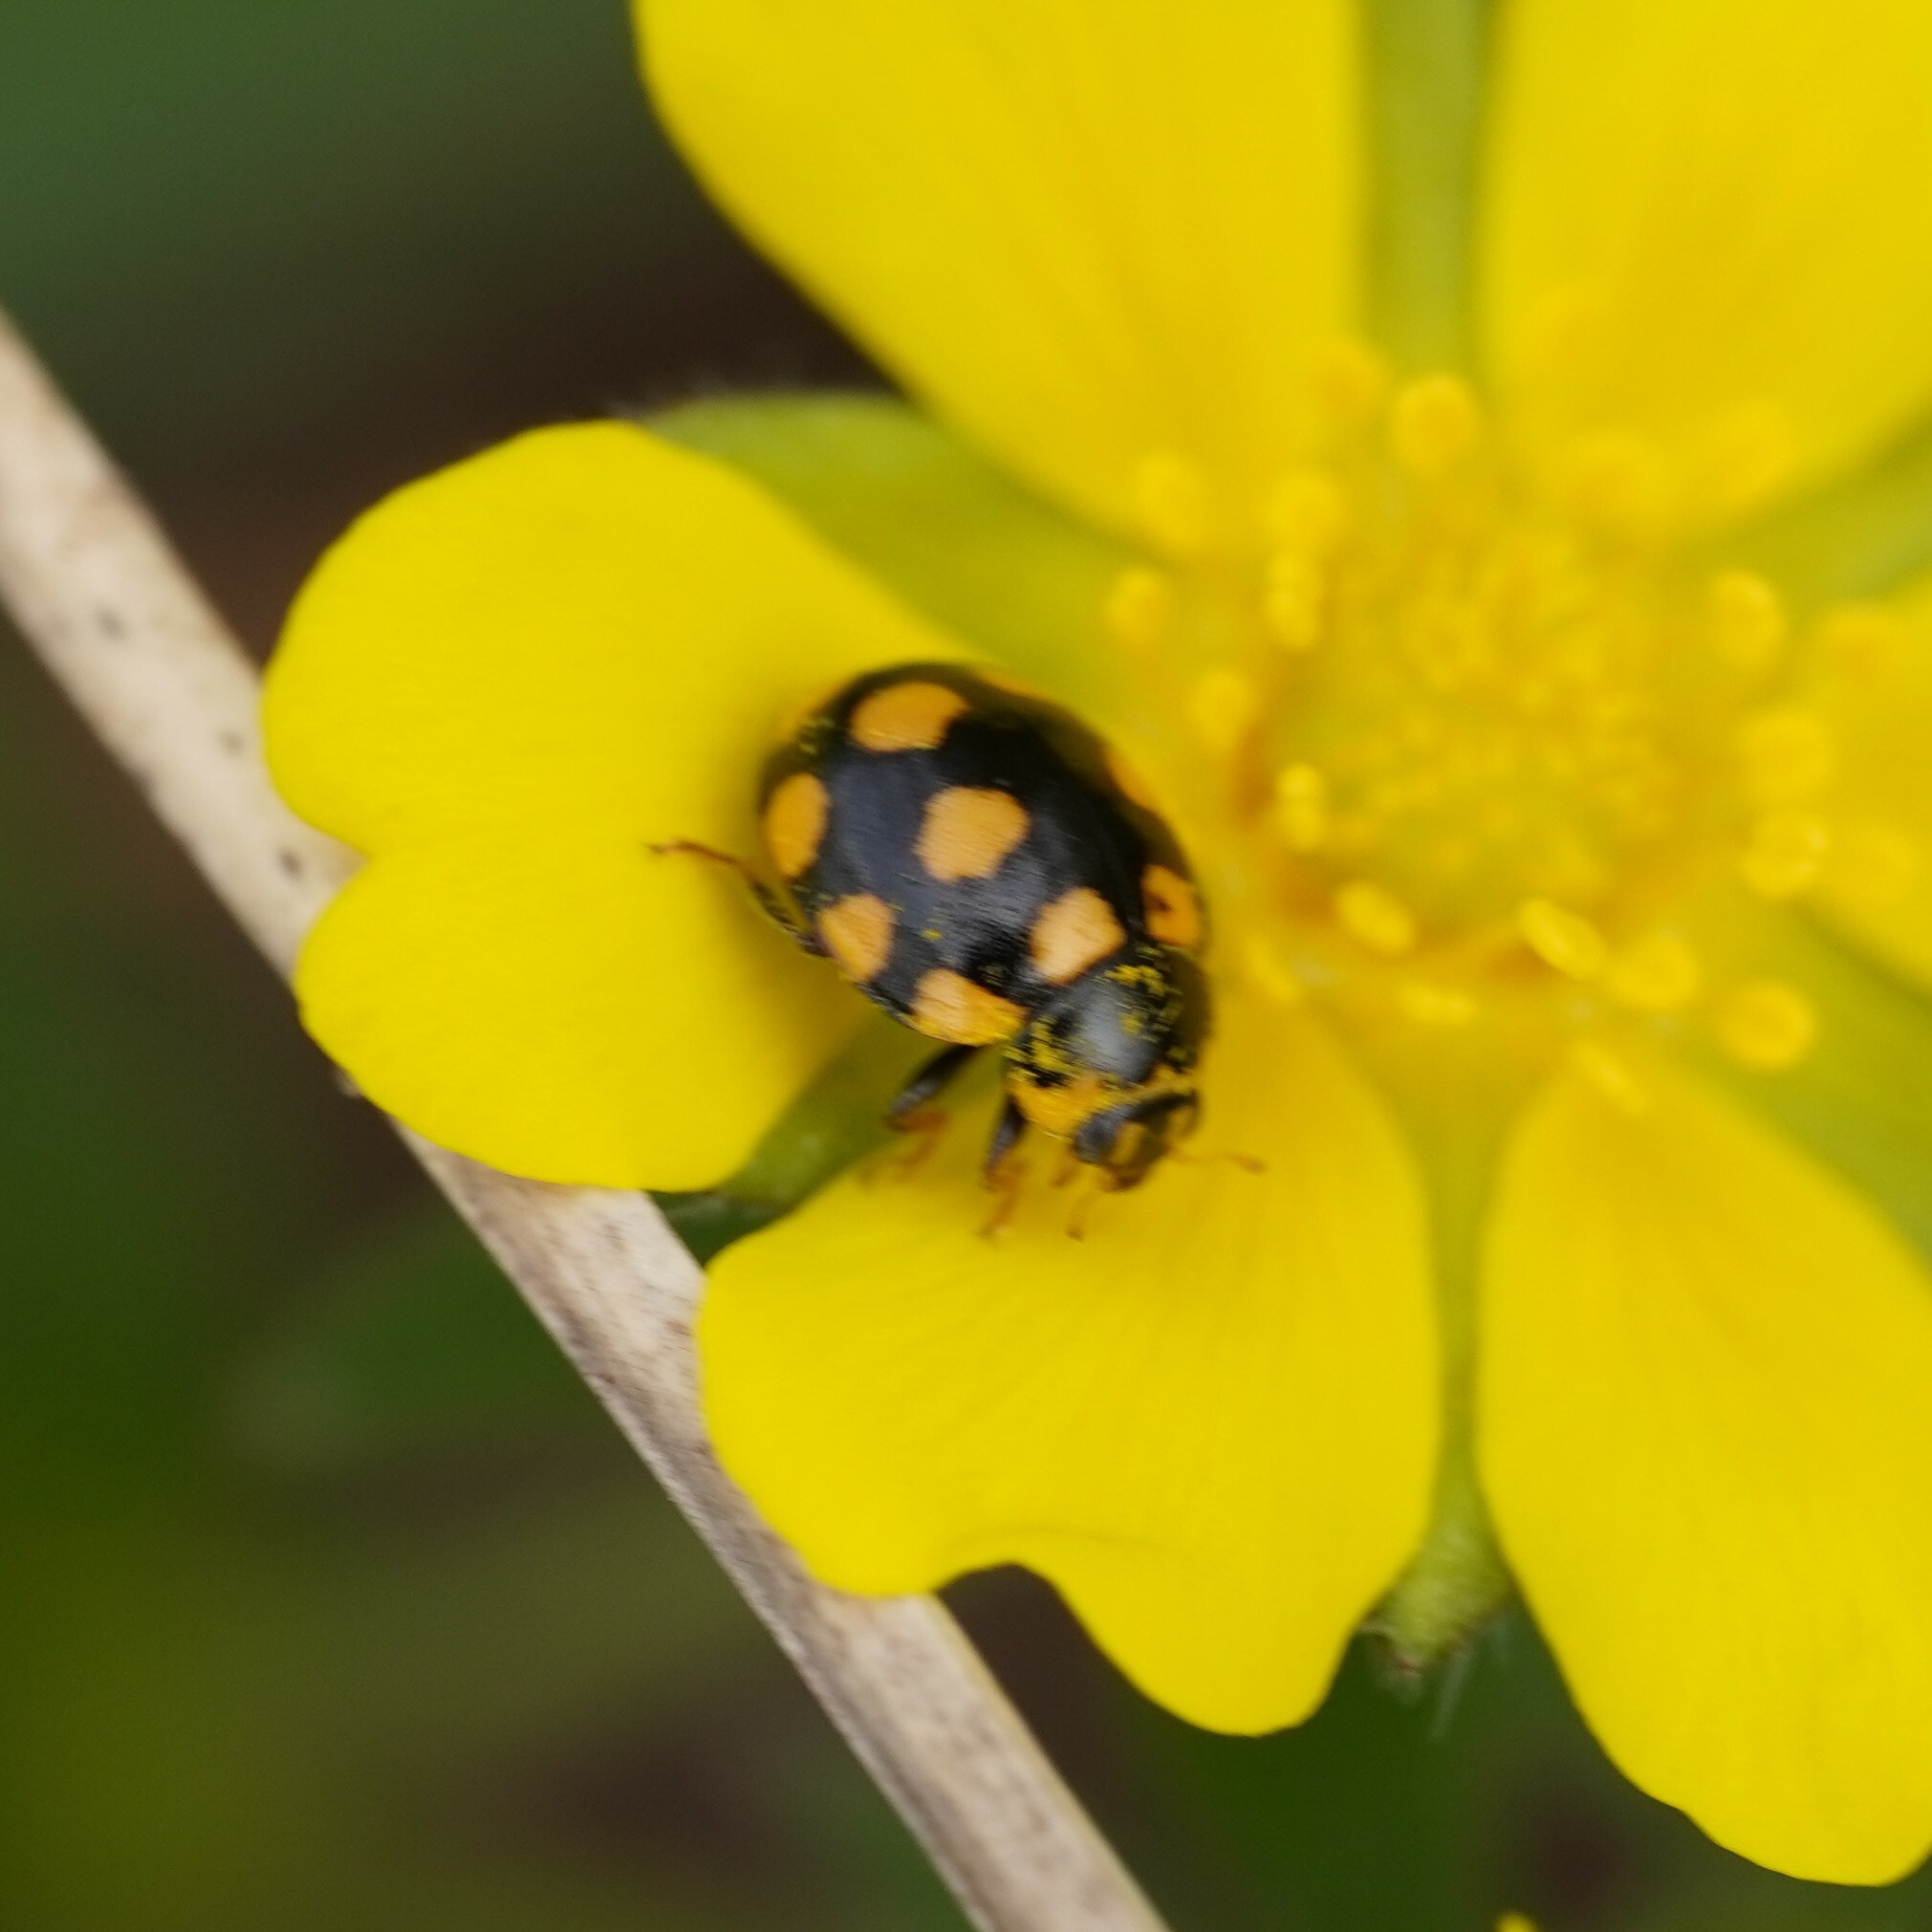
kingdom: Animalia
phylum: Arthropoda
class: Insecta
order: Coleoptera
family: Coccinellidae
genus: Coccinula
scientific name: Coccinula quatuordecimpustulata
